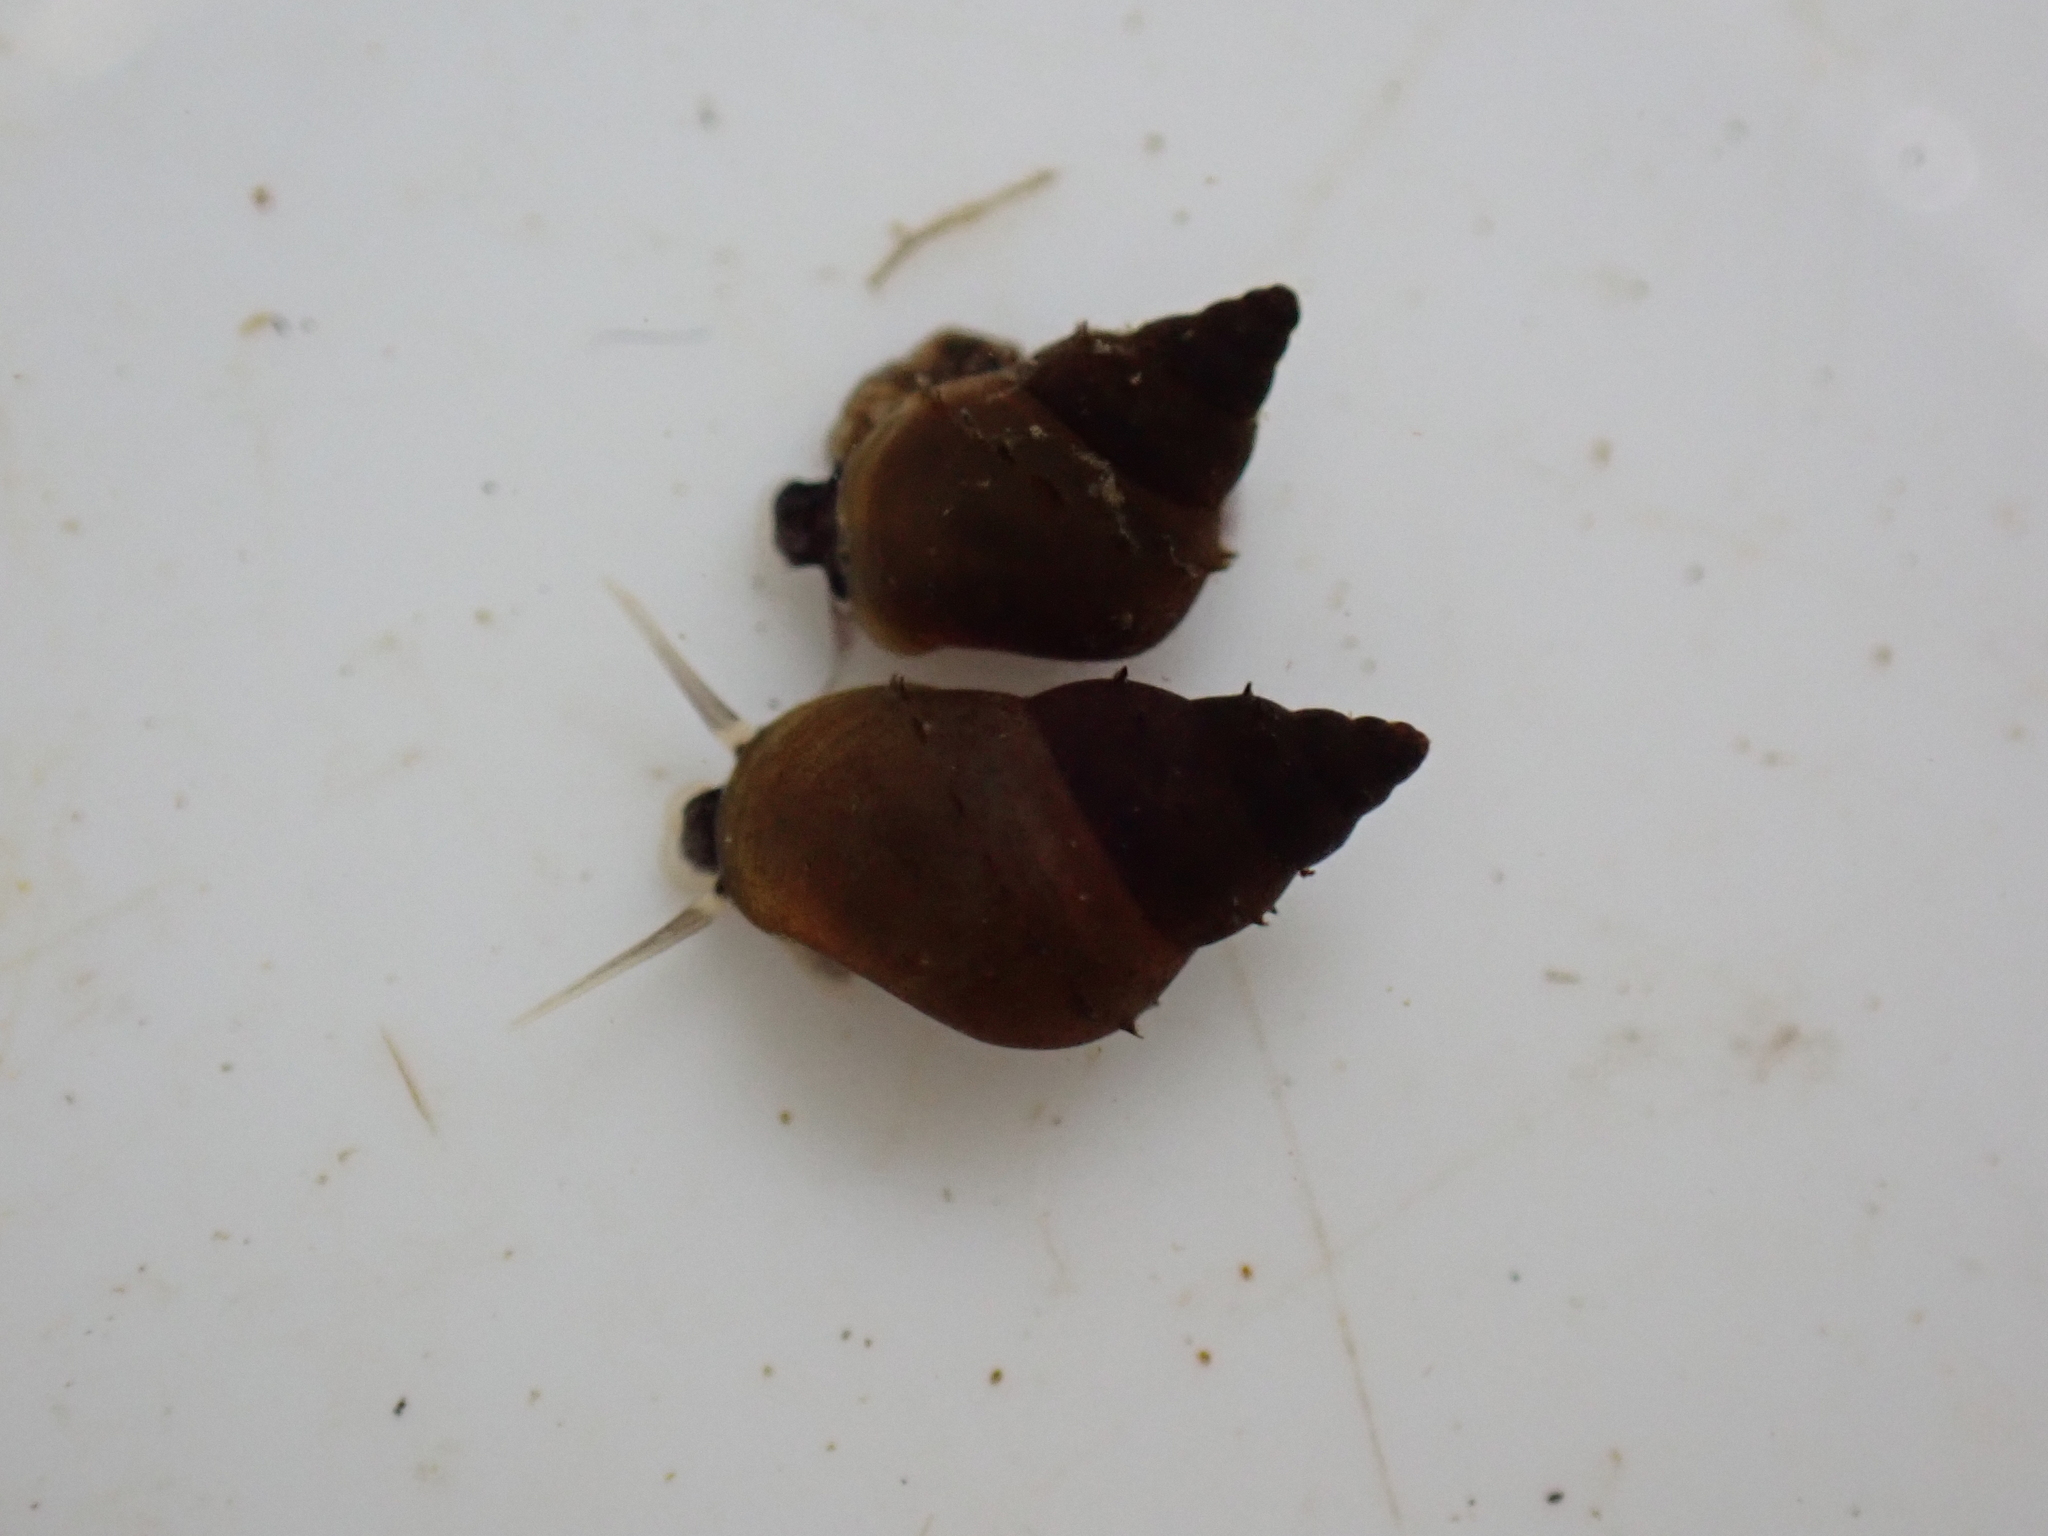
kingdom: Animalia
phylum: Mollusca
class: Gastropoda
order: Littorinimorpha
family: Tateidae
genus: Potamopyrgus
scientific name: Potamopyrgus antipodarum
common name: Jenkins' spire snail
